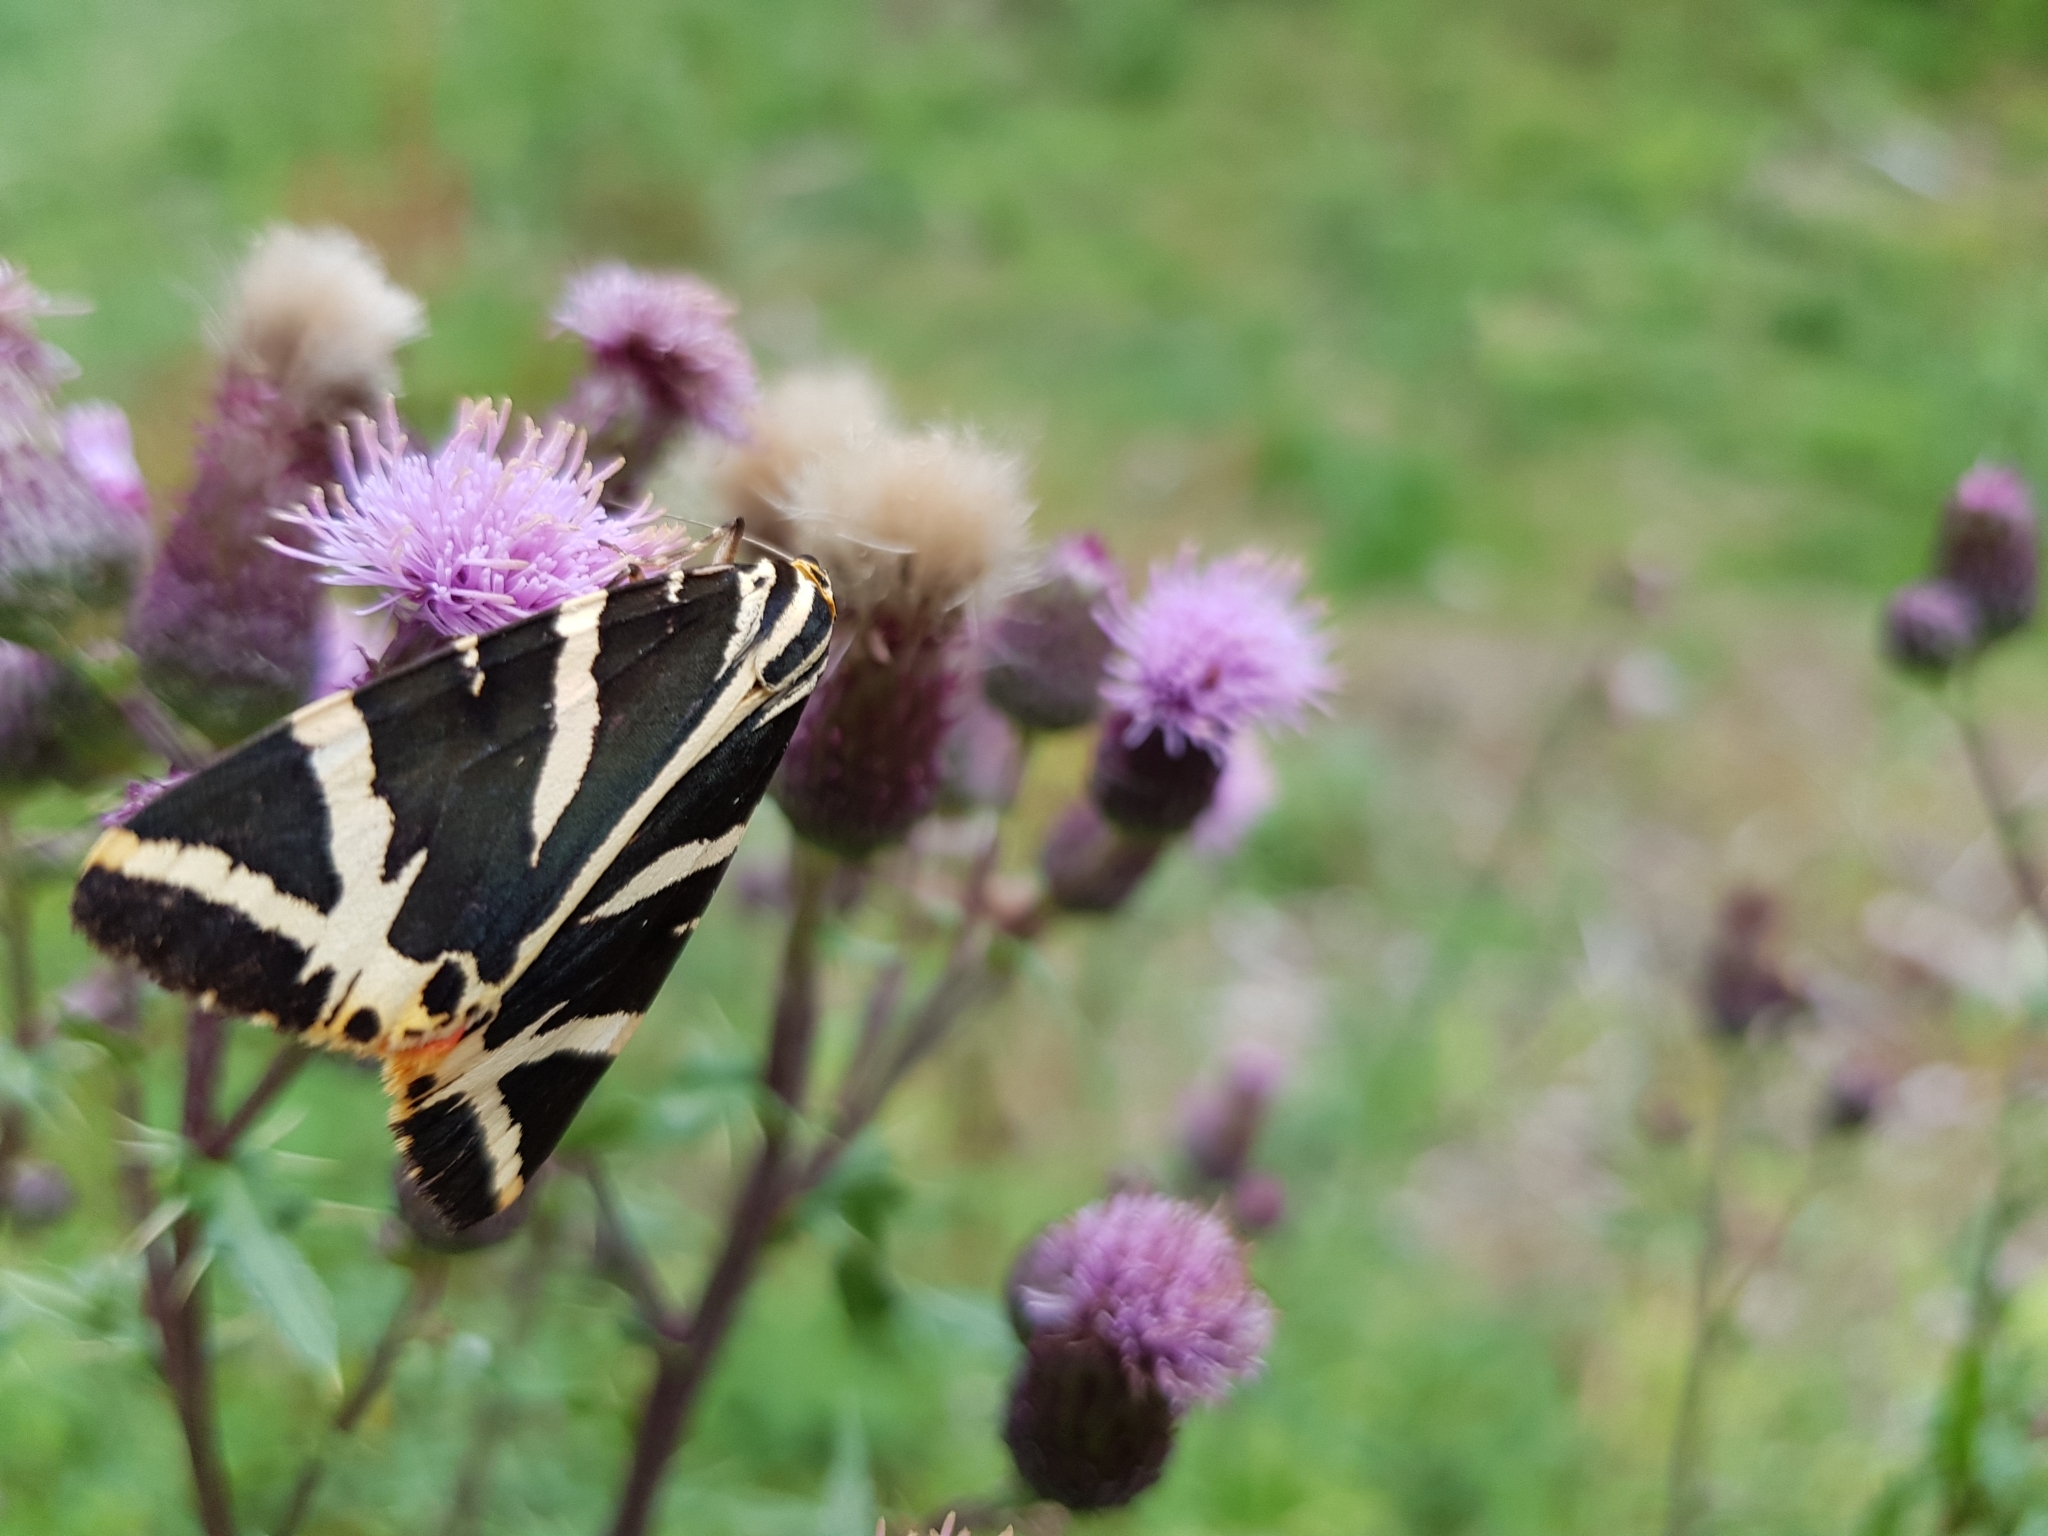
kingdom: Animalia
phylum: Arthropoda
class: Insecta
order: Lepidoptera
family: Erebidae
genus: Euplagia
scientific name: Euplagia quadripunctaria
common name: Jersey tiger
